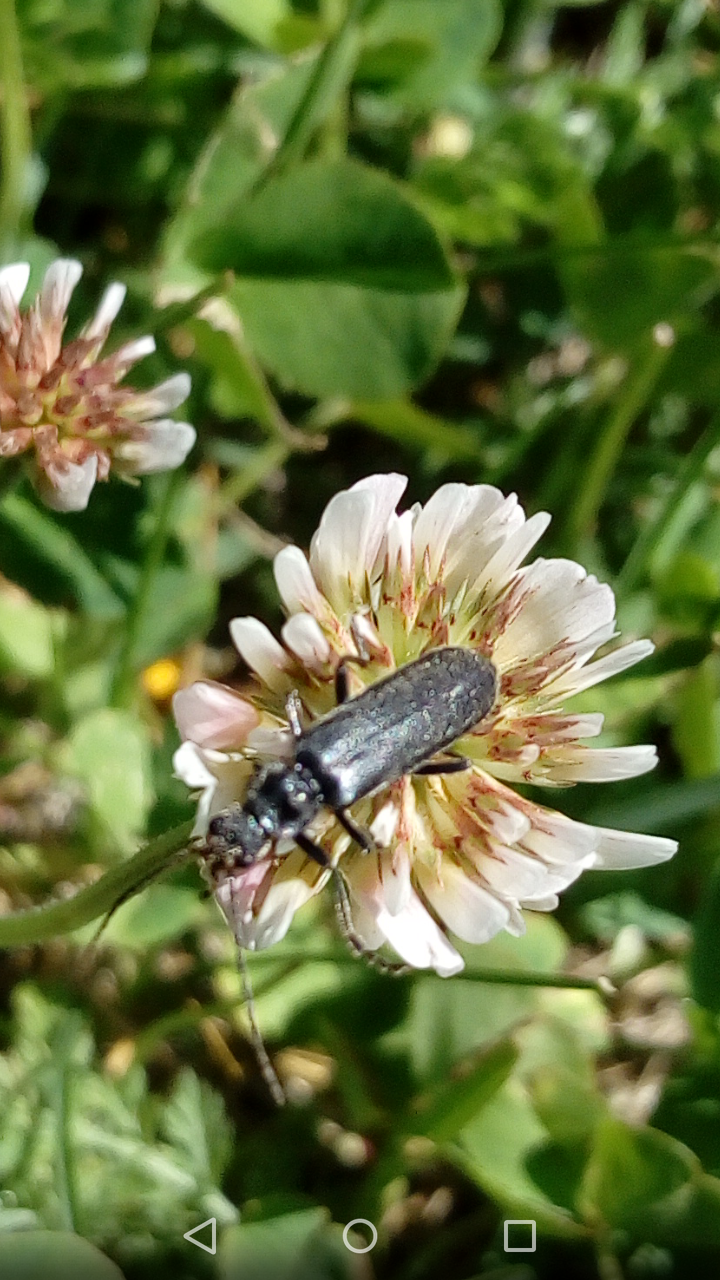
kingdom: Animalia
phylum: Arthropoda
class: Insecta
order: Coleoptera
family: Cantharidae
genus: Cantharis
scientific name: Cantharis tristis
